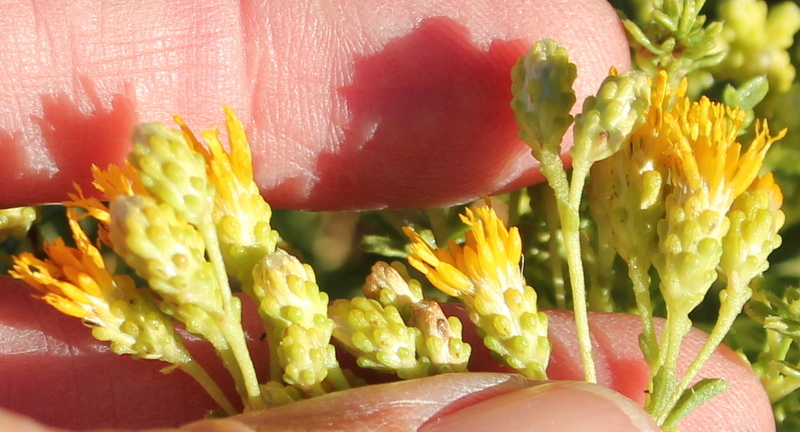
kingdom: Plantae
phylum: Tracheophyta
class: Magnoliopsida
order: Asterales
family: Asteraceae
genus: Isocoma
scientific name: Isocoma acradenia
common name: Alkali jimmyweed
